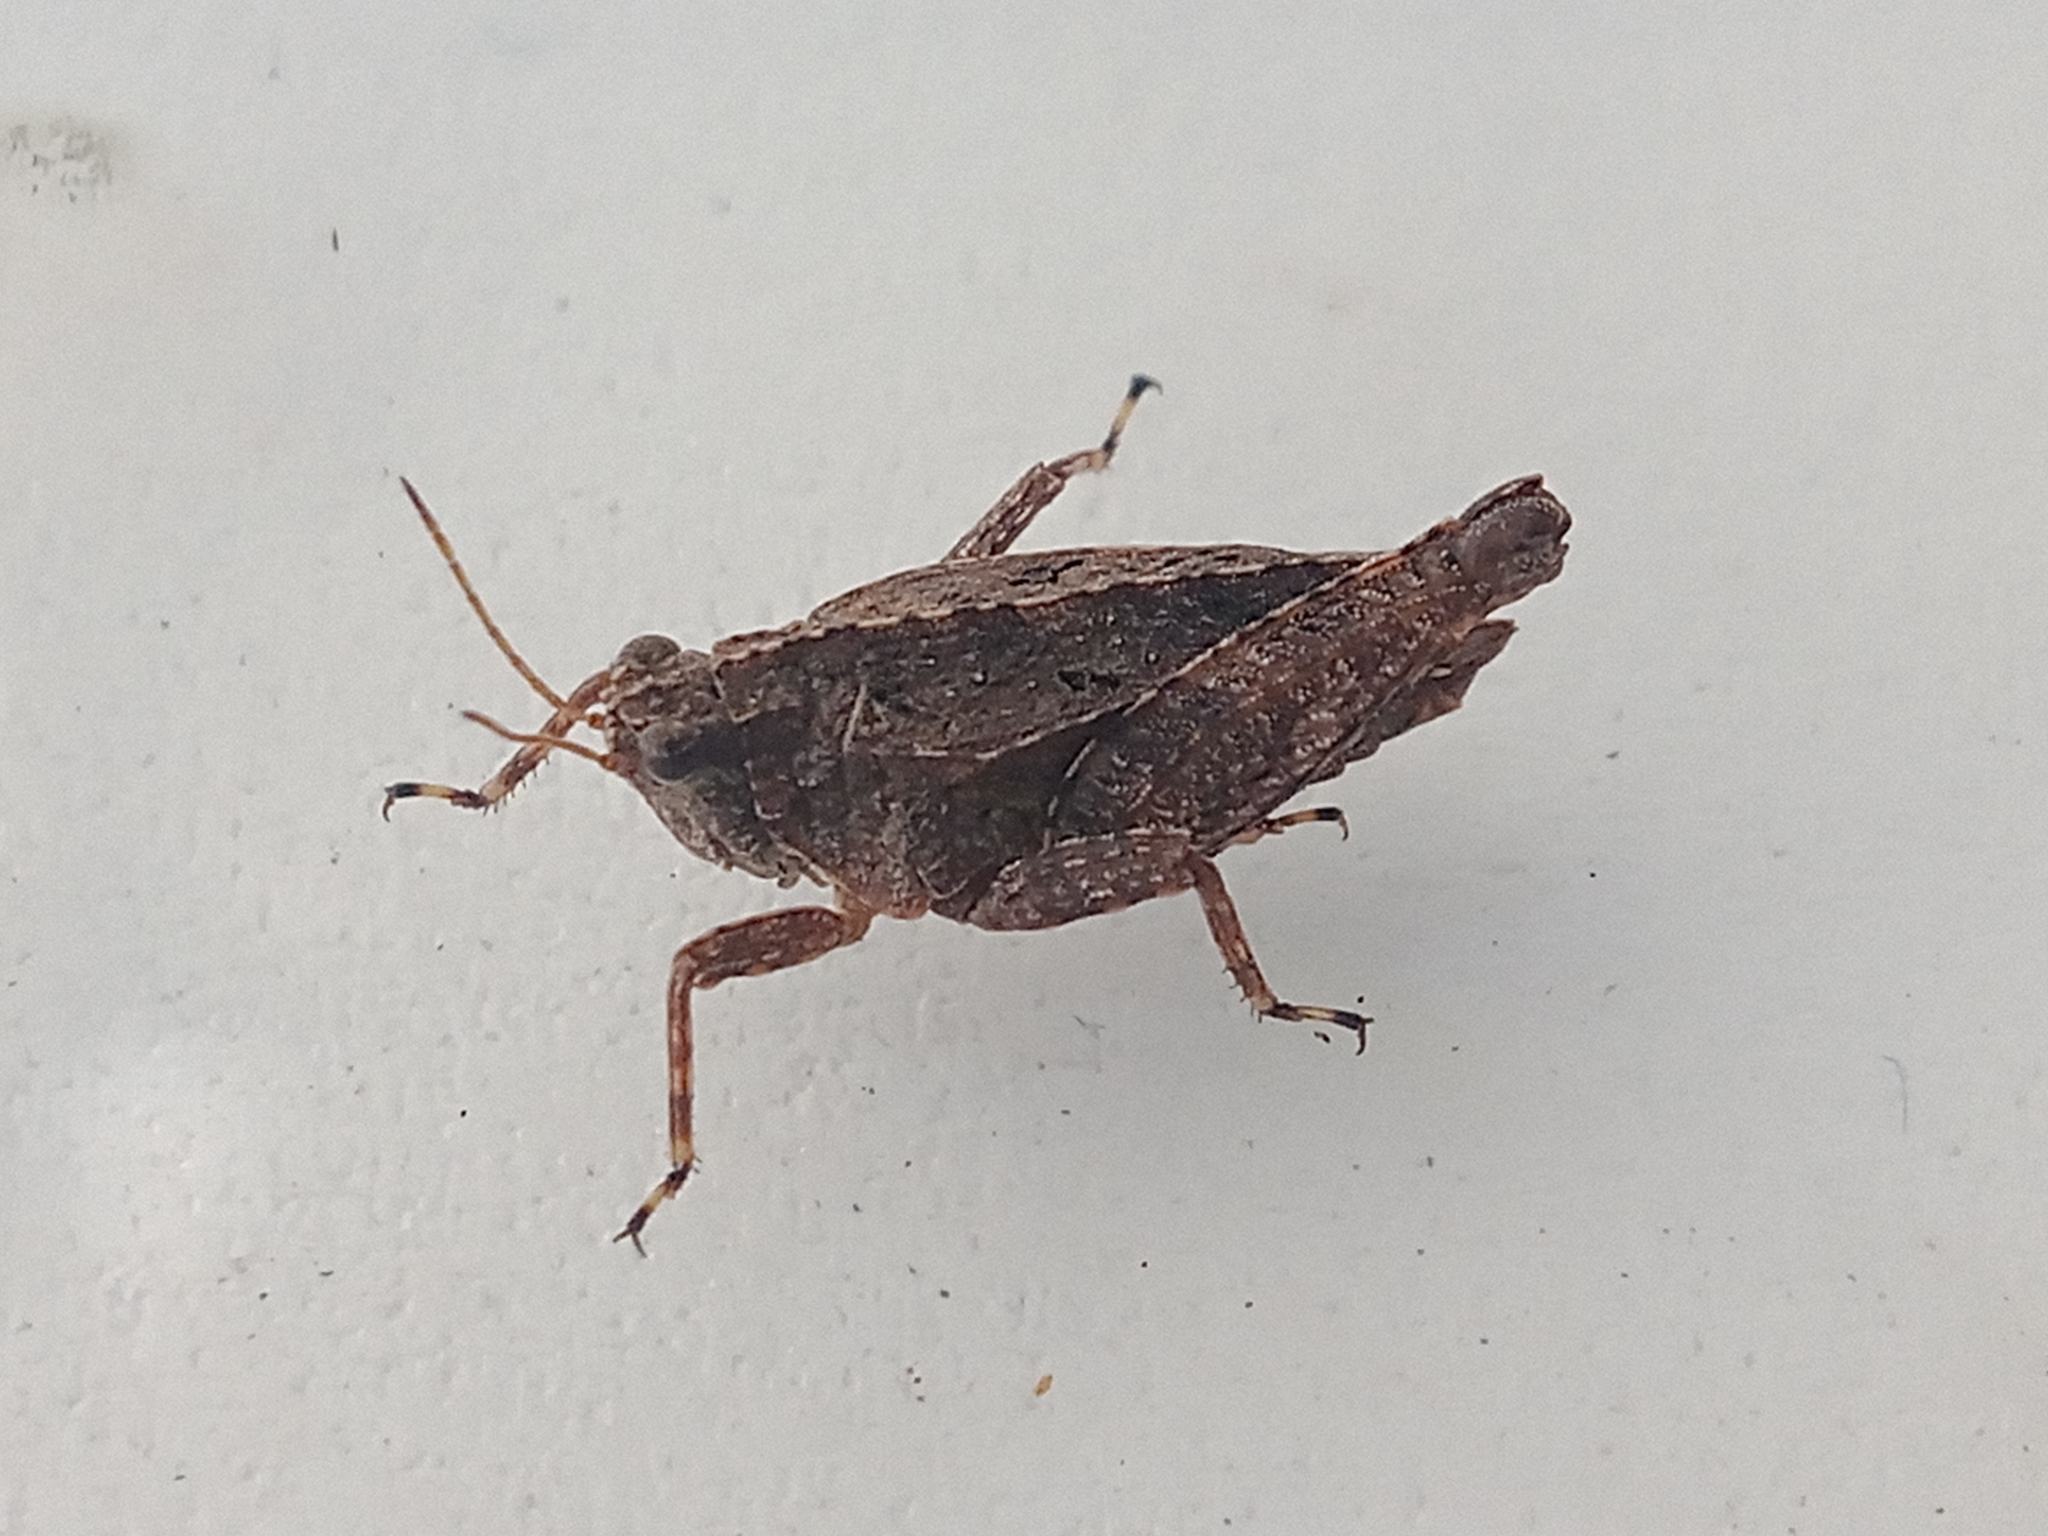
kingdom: Animalia
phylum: Arthropoda
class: Insecta
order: Orthoptera
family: Tetrigidae
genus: Tetrix
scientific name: Tetrix tenuicornis
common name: Long-horned groundhopper
